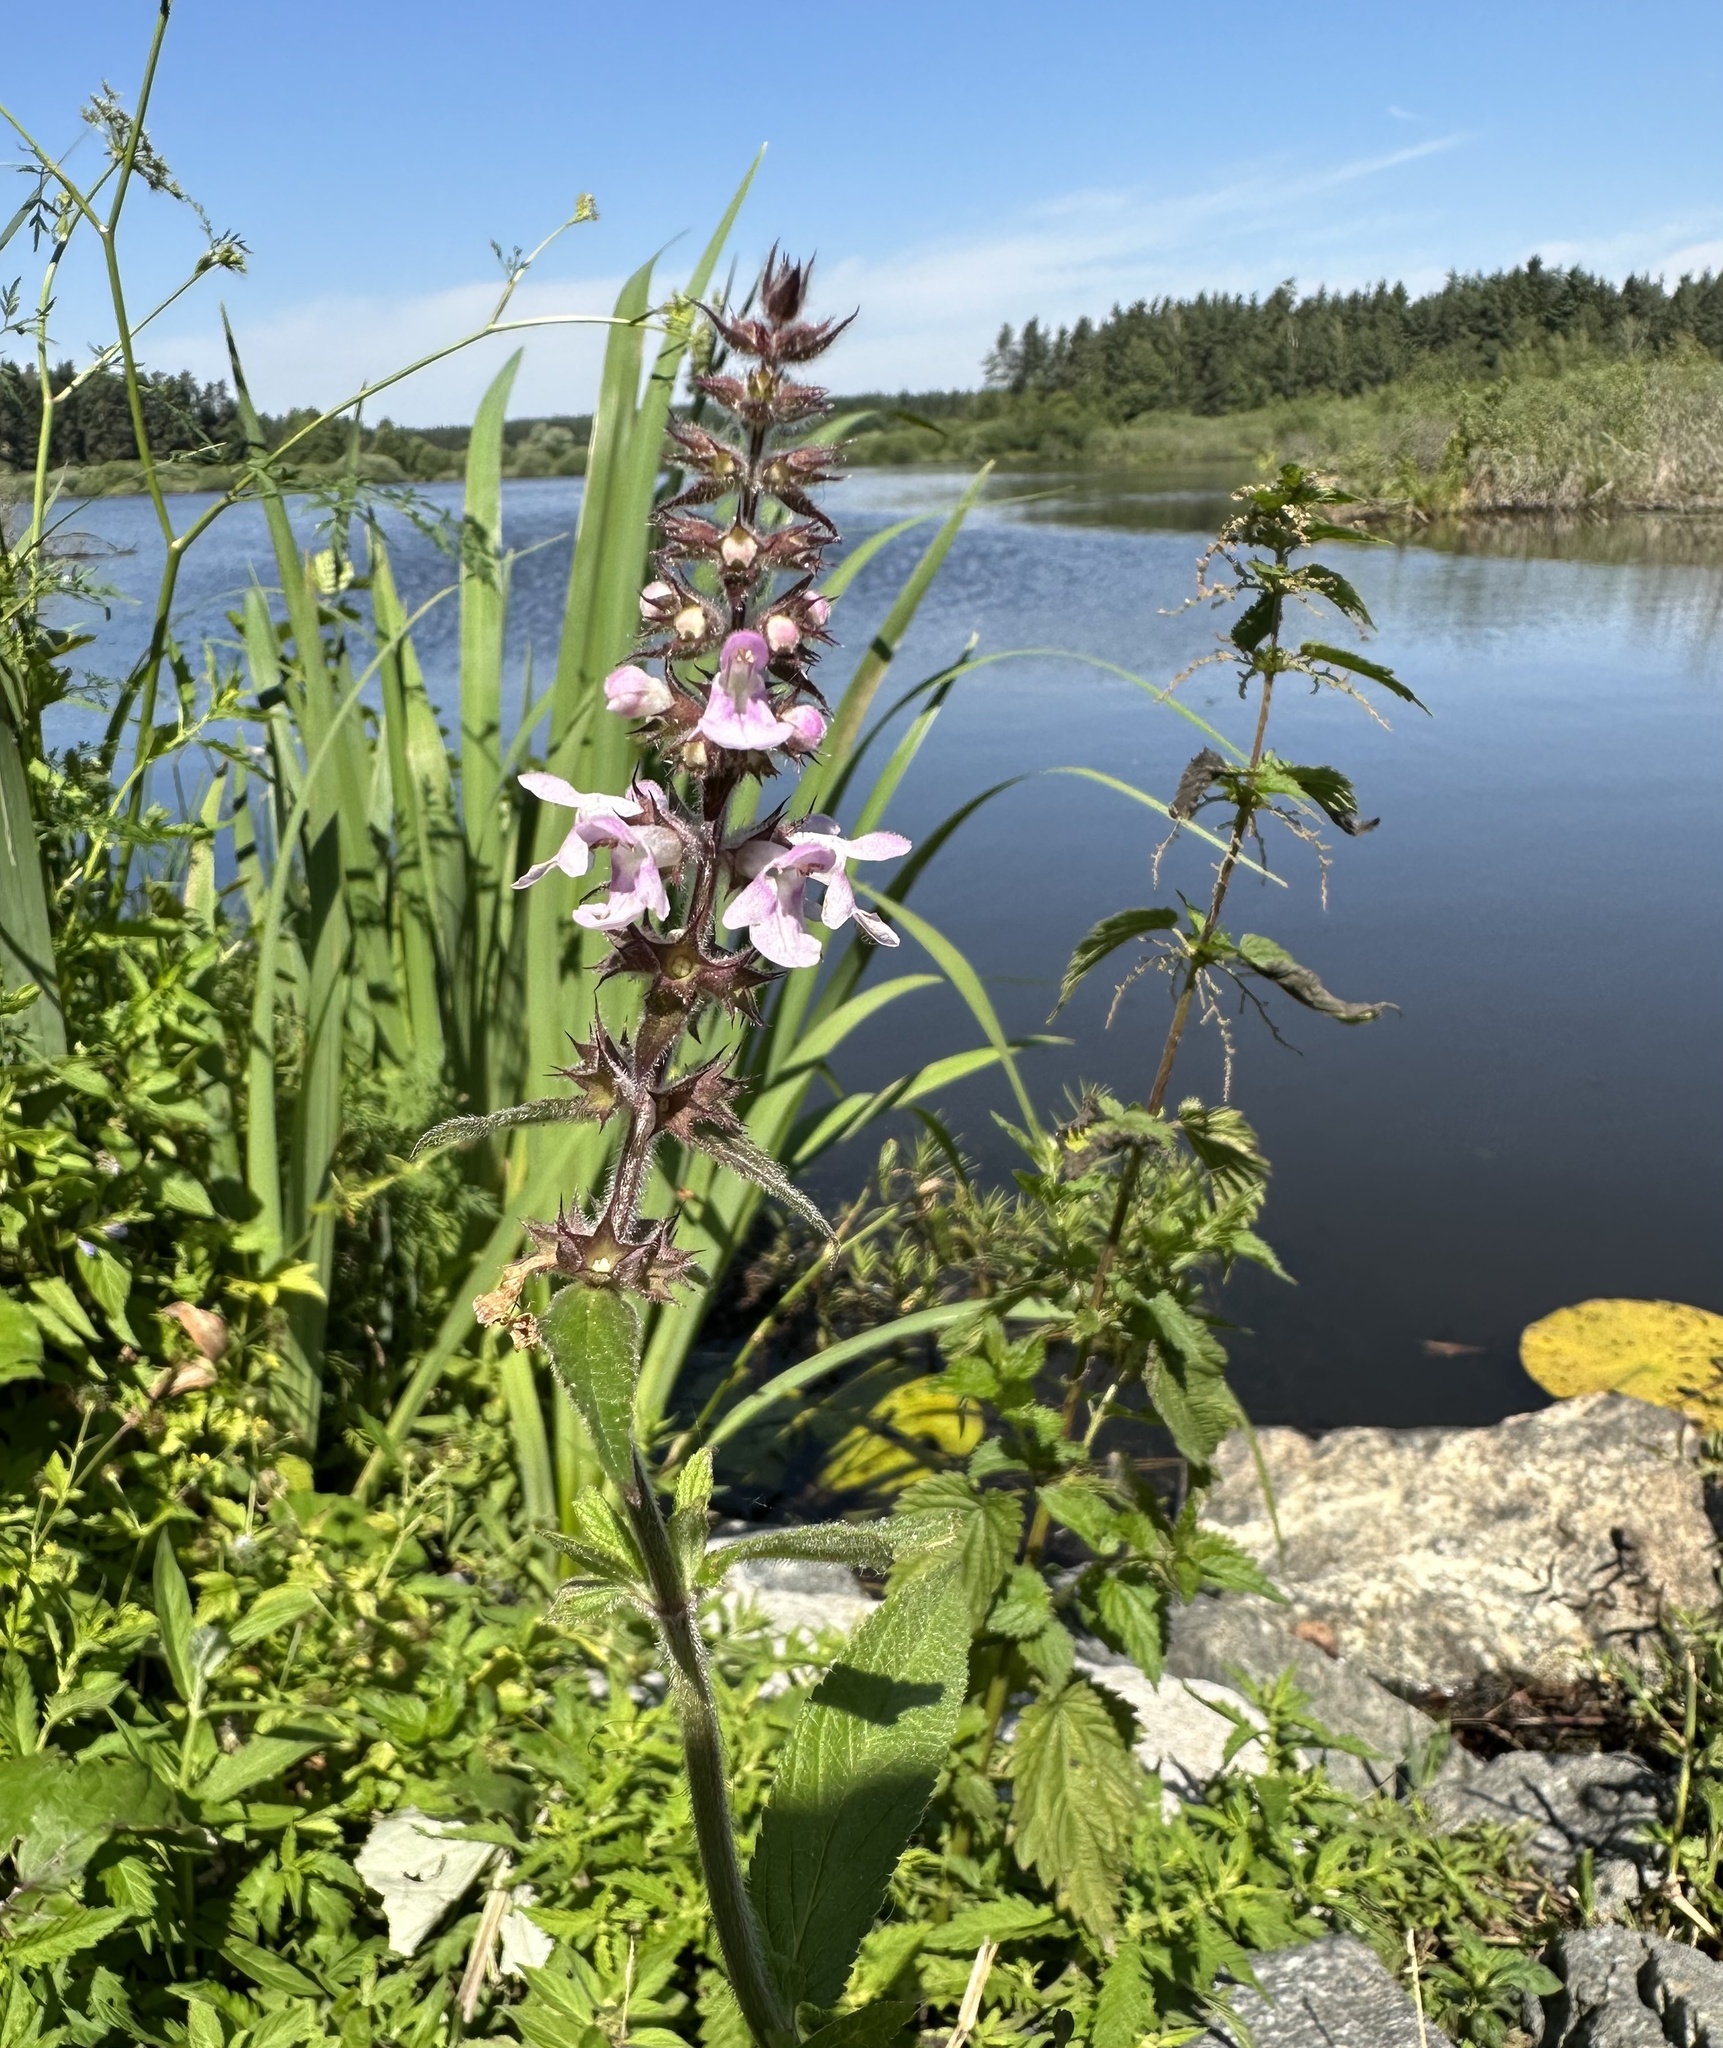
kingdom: Plantae
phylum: Tracheophyta
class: Magnoliopsida
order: Lamiales
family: Lamiaceae
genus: Stachys
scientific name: Stachys palustris
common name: Marsh woundwort
